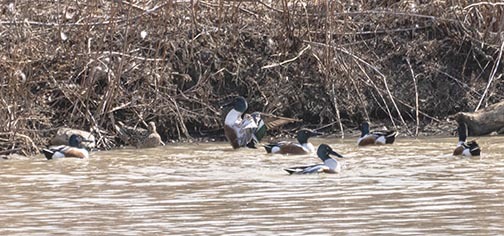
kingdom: Animalia
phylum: Chordata
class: Aves
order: Anseriformes
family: Anatidae
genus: Spatula
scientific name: Spatula clypeata
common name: Northern shoveler
